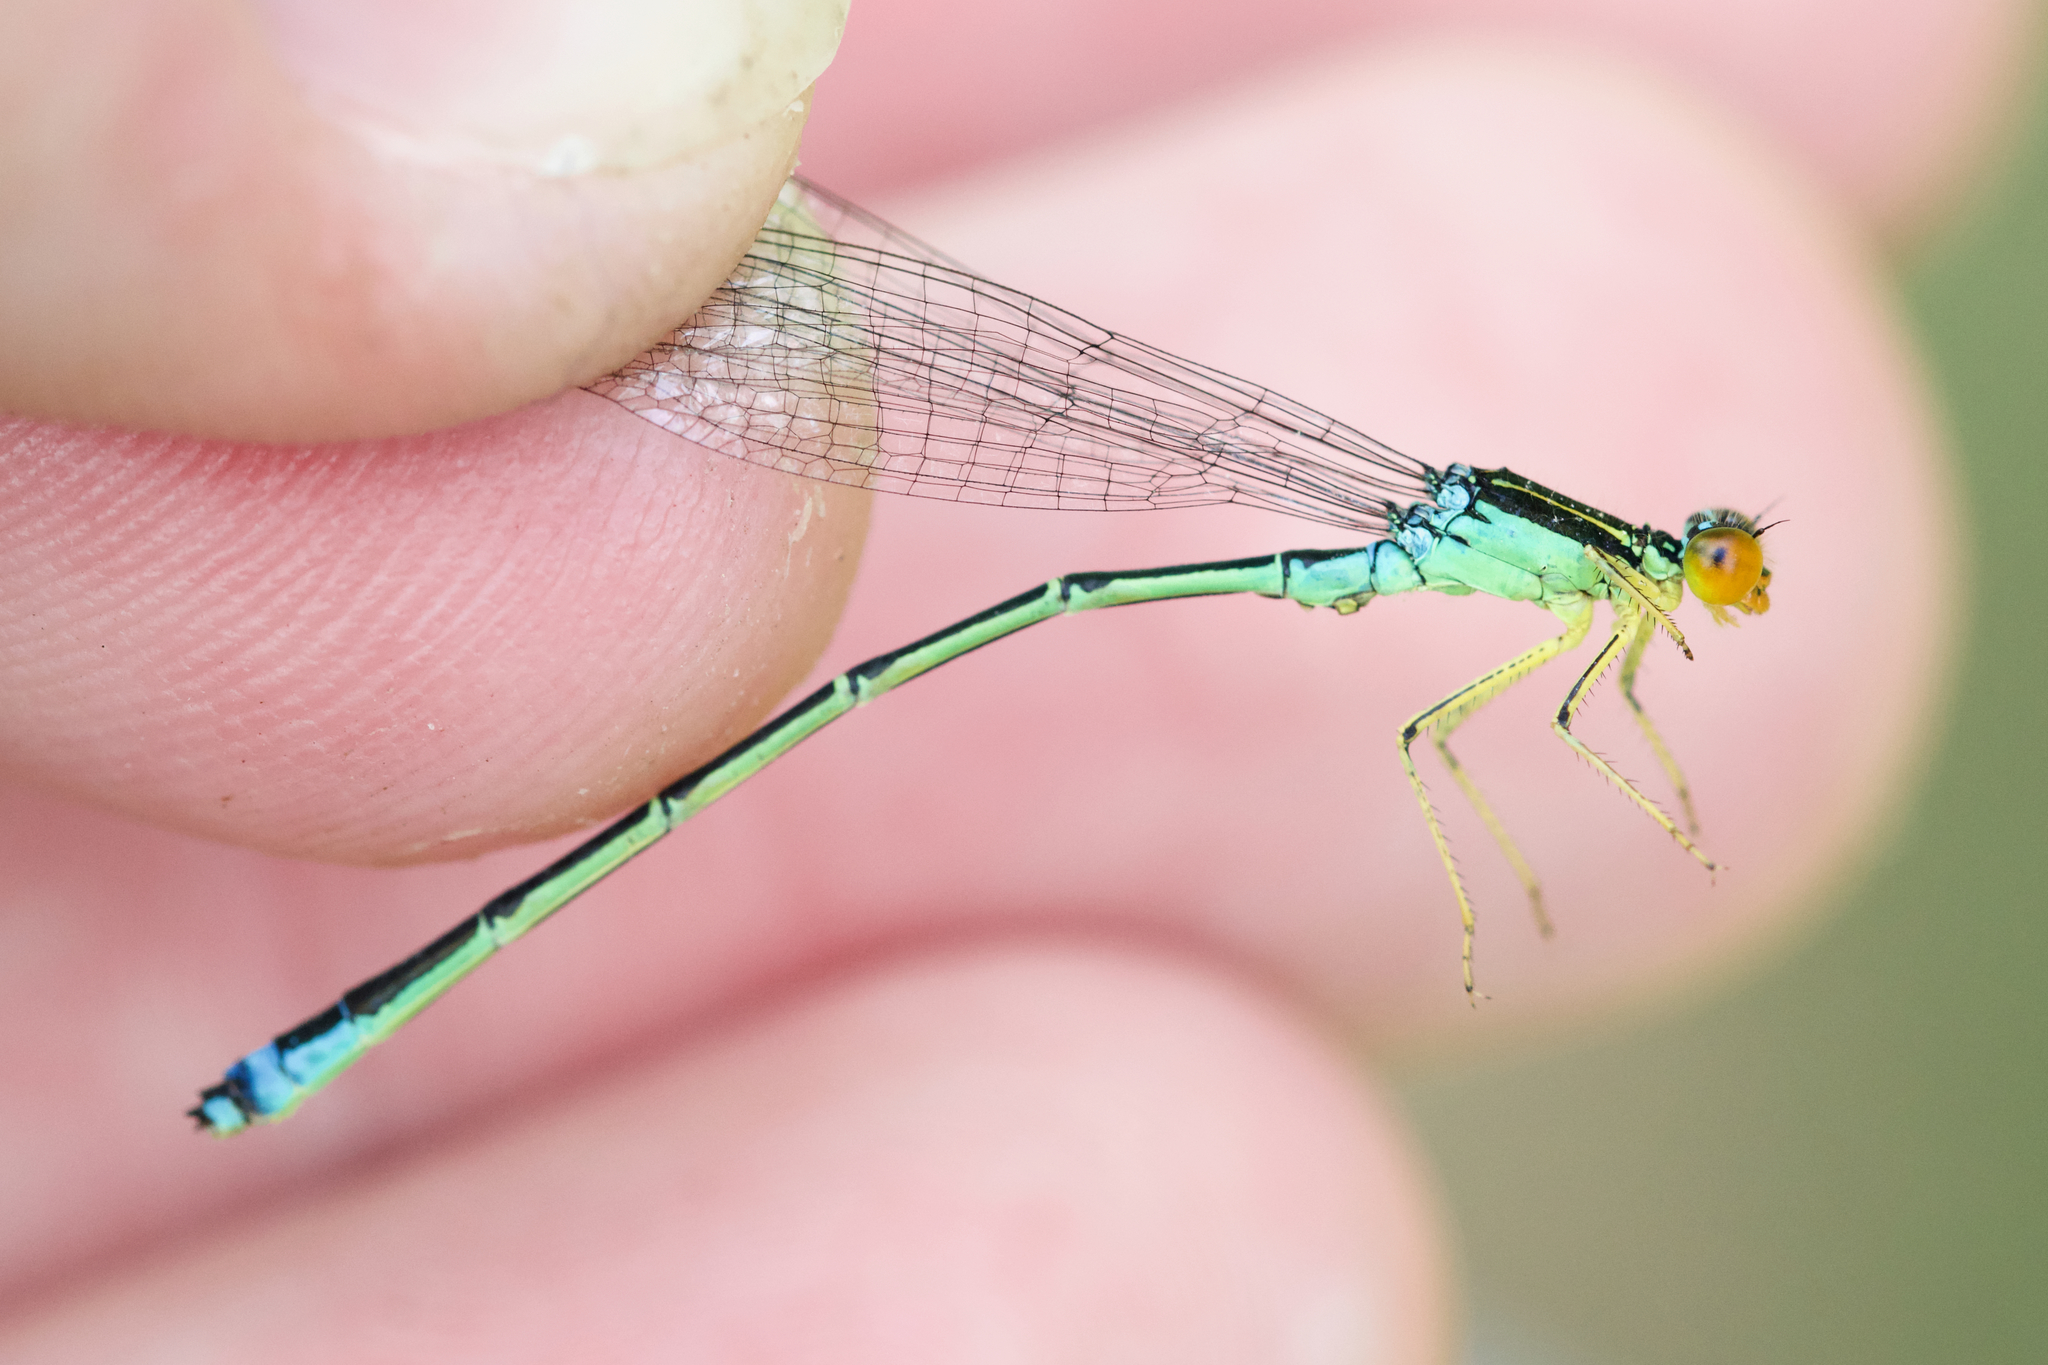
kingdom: Animalia
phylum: Arthropoda
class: Insecta
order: Odonata
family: Coenagrionidae
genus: Enallagma
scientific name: Enallagma antennatum
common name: Rainbow bluet
